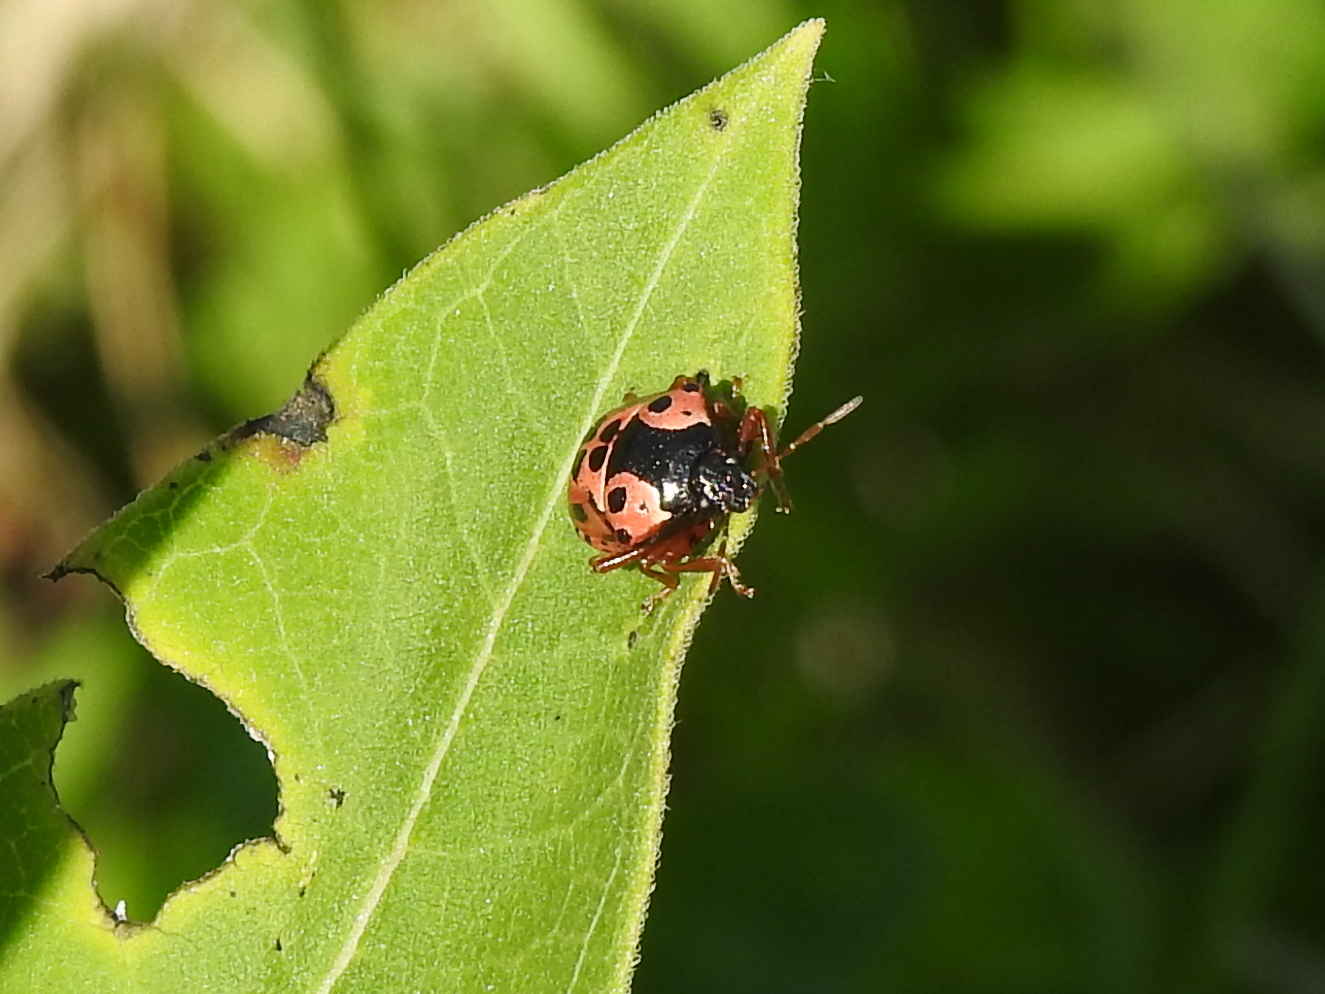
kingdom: Animalia
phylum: Arthropoda
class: Insecta
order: Hemiptera
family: Pentatomidae
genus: Stiretrus
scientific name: Stiretrus anchorago
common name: Anchor stink bug
